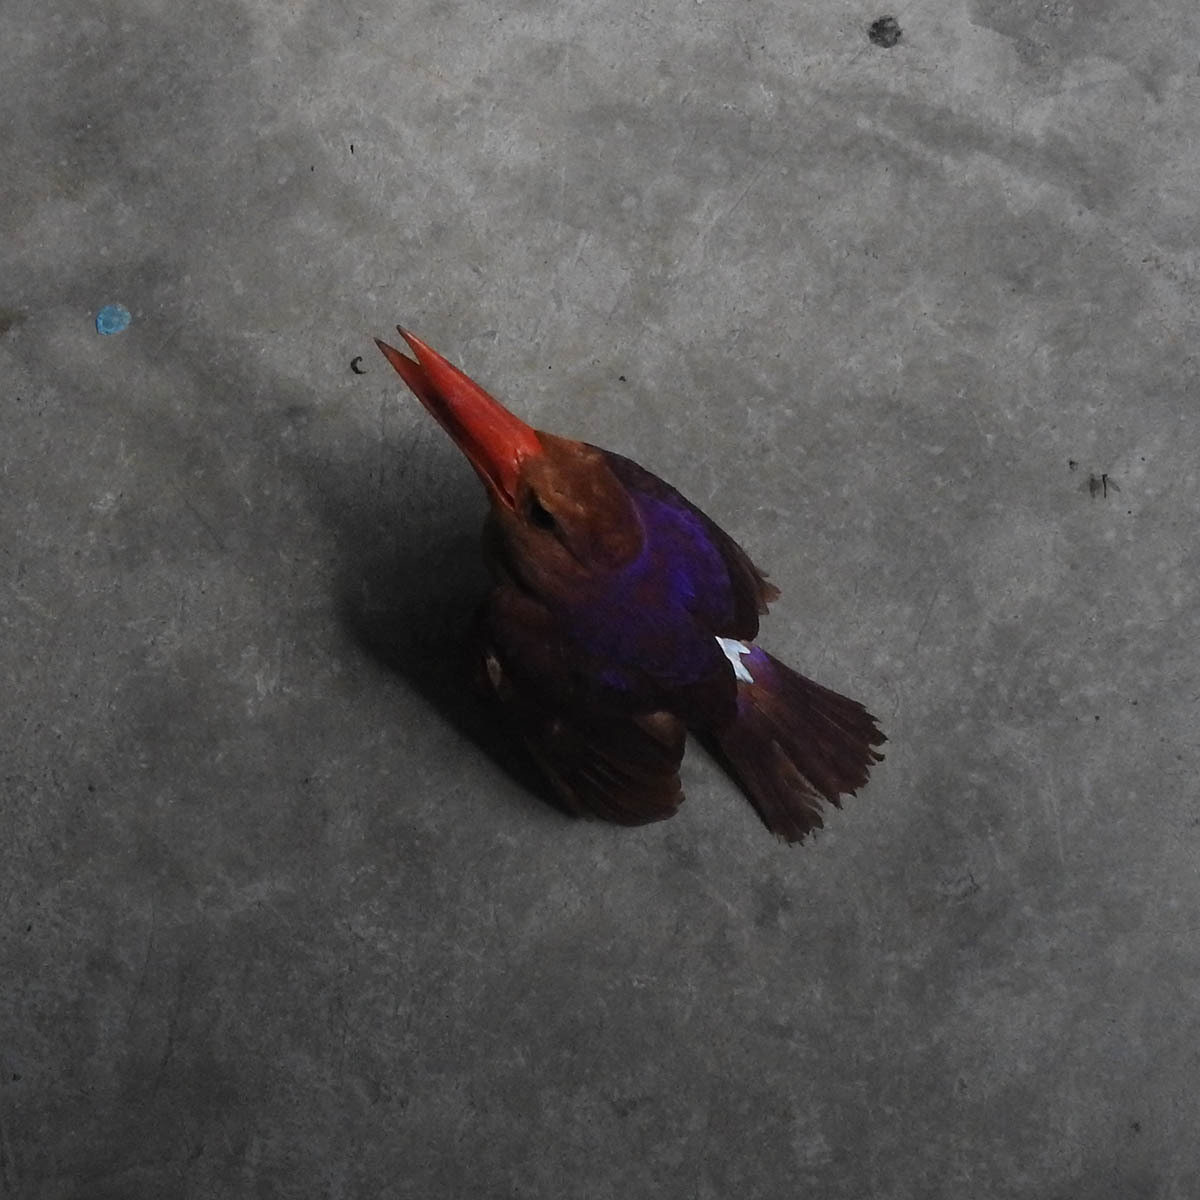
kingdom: Animalia
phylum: Chordata
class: Aves
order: Coraciiformes
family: Alcedinidae
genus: Halcyon
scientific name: Halcyon coromanda
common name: Ruddy kingfisher
